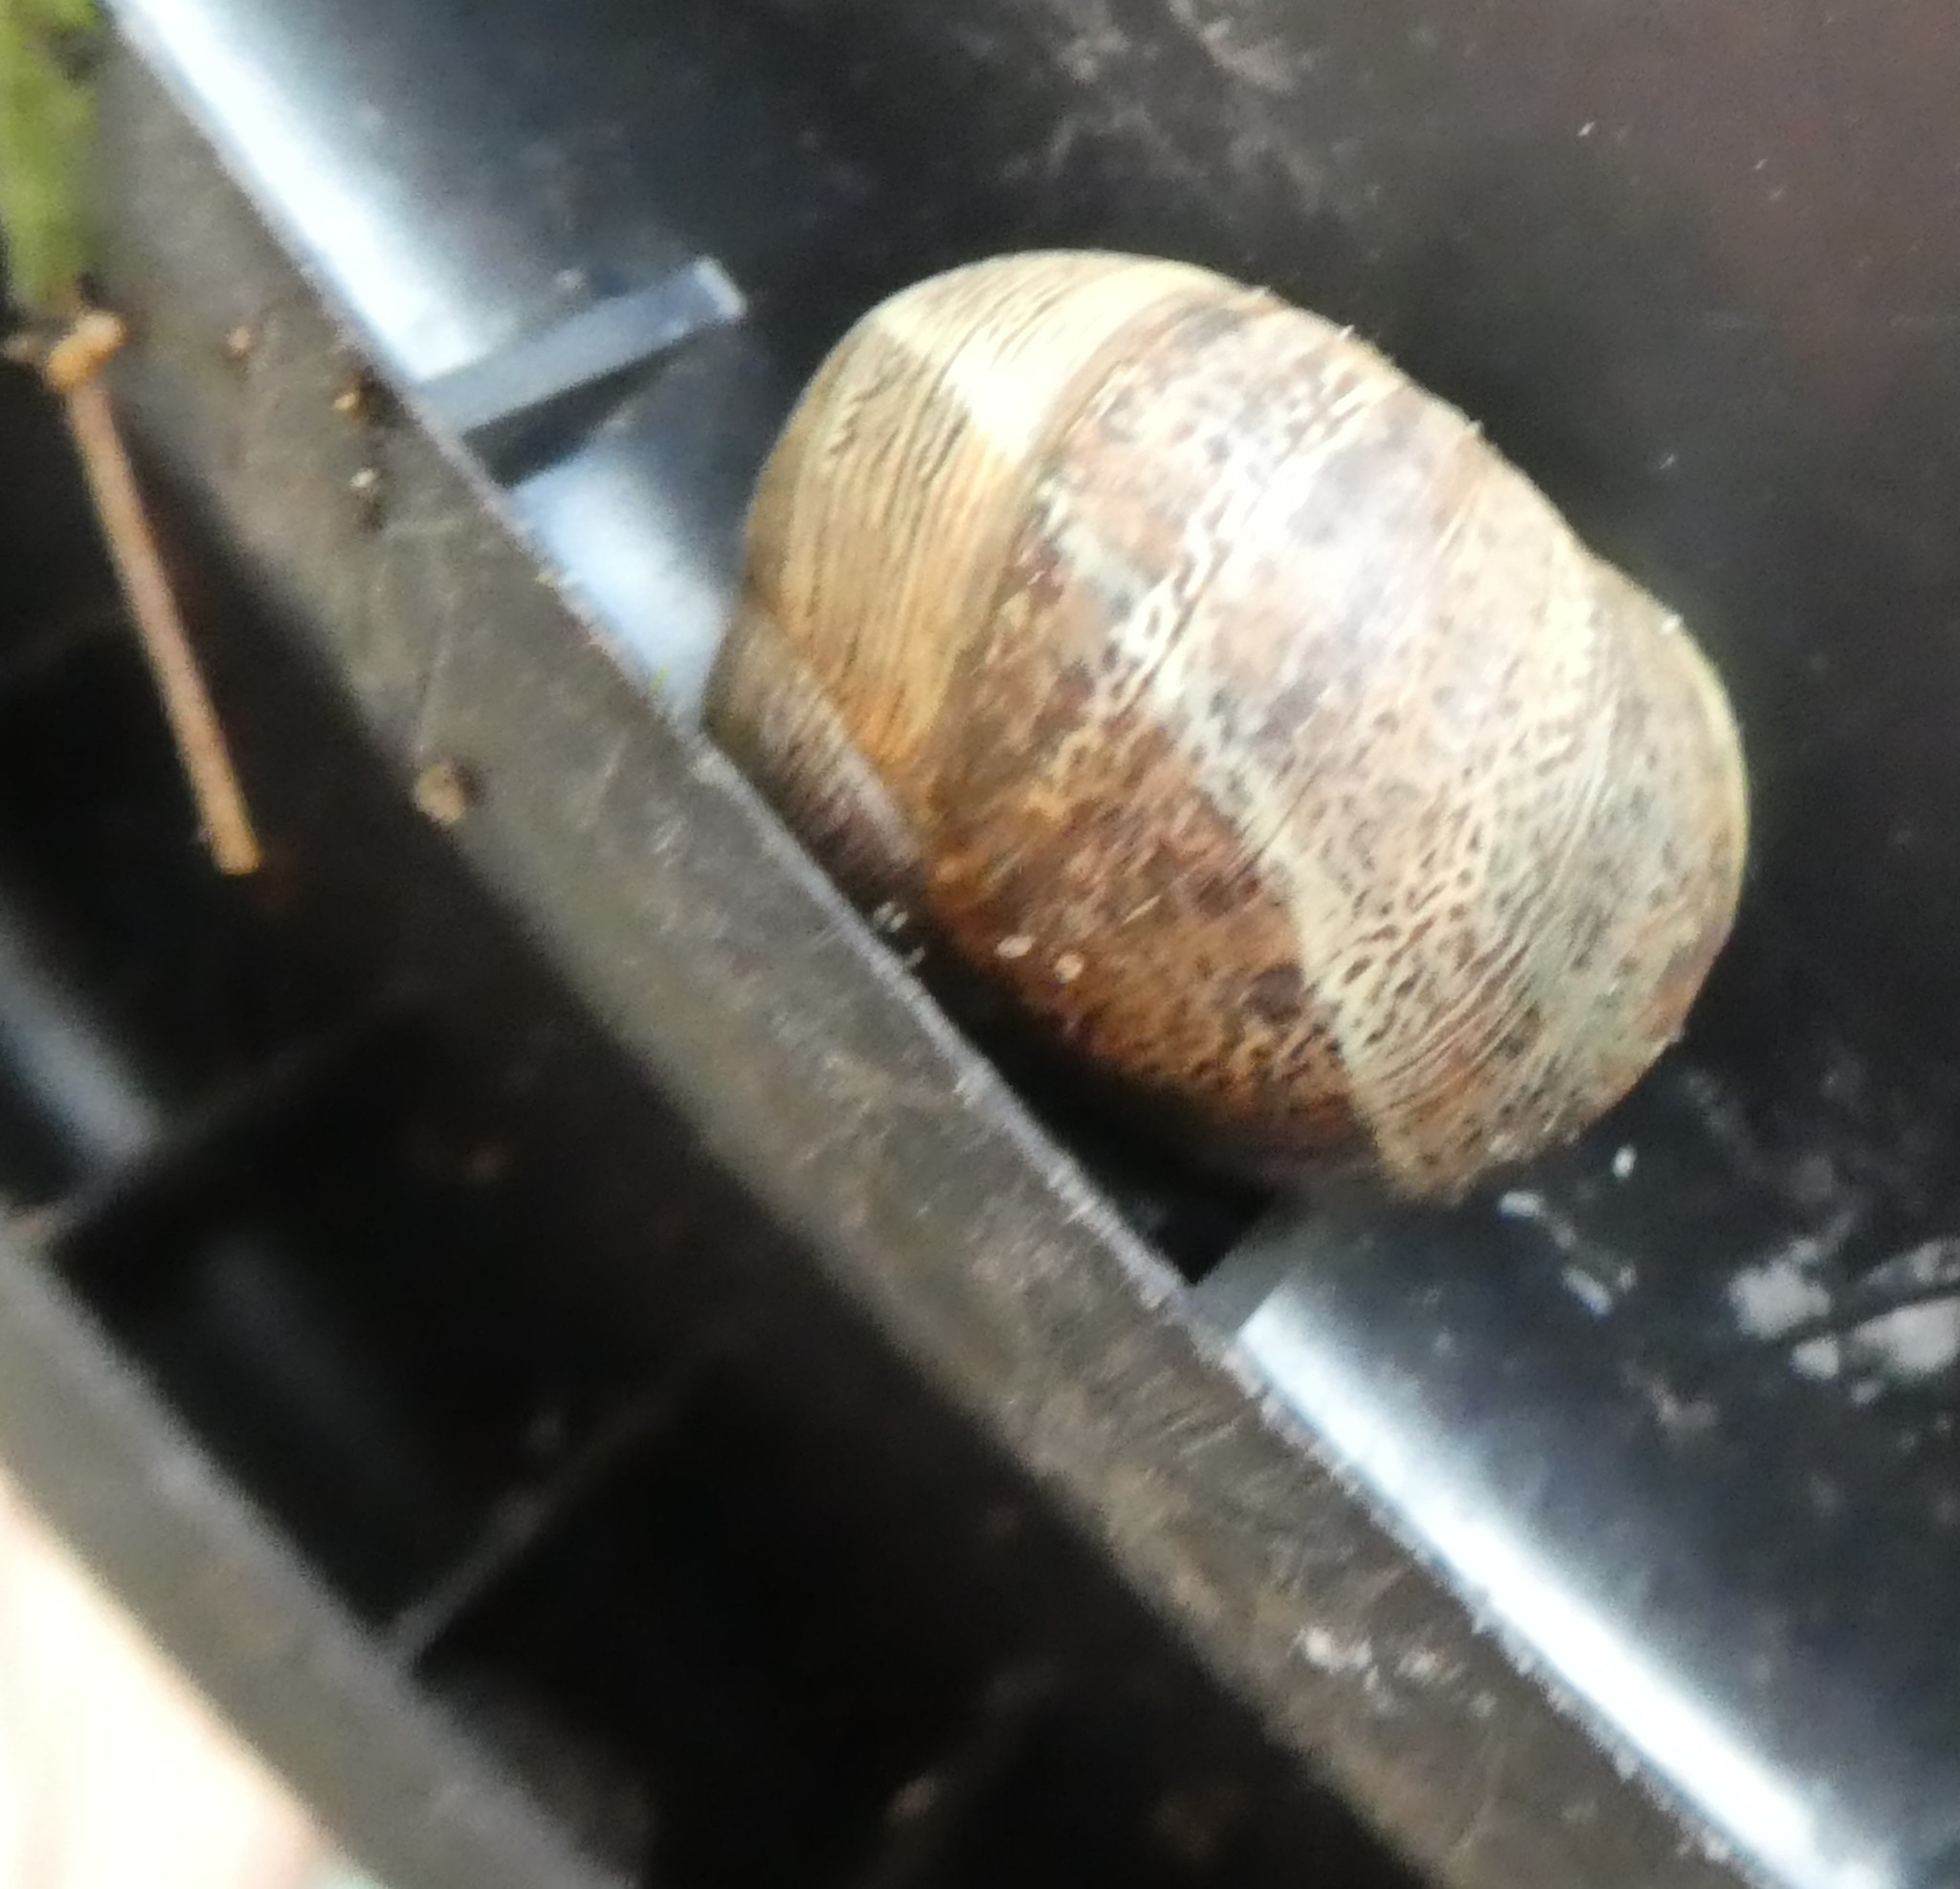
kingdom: Animalia
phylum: Mollusca
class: Gastropoda
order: Stylommatophora
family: Helicidae
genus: Cornu
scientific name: Cornu aspersum
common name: Brown garden snail
